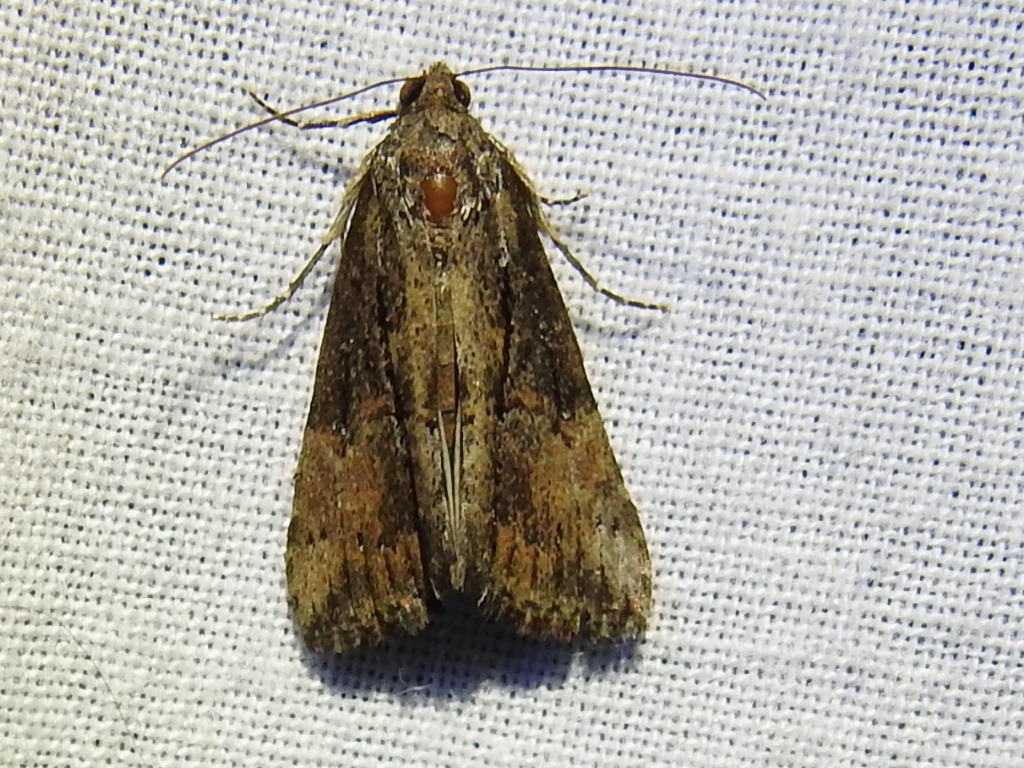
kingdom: Animalia
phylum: Arthropoda
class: Insecta
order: Lepidoptera
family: Erebidae
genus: Hypena
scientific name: Hypena scabra
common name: Green cloverworm
